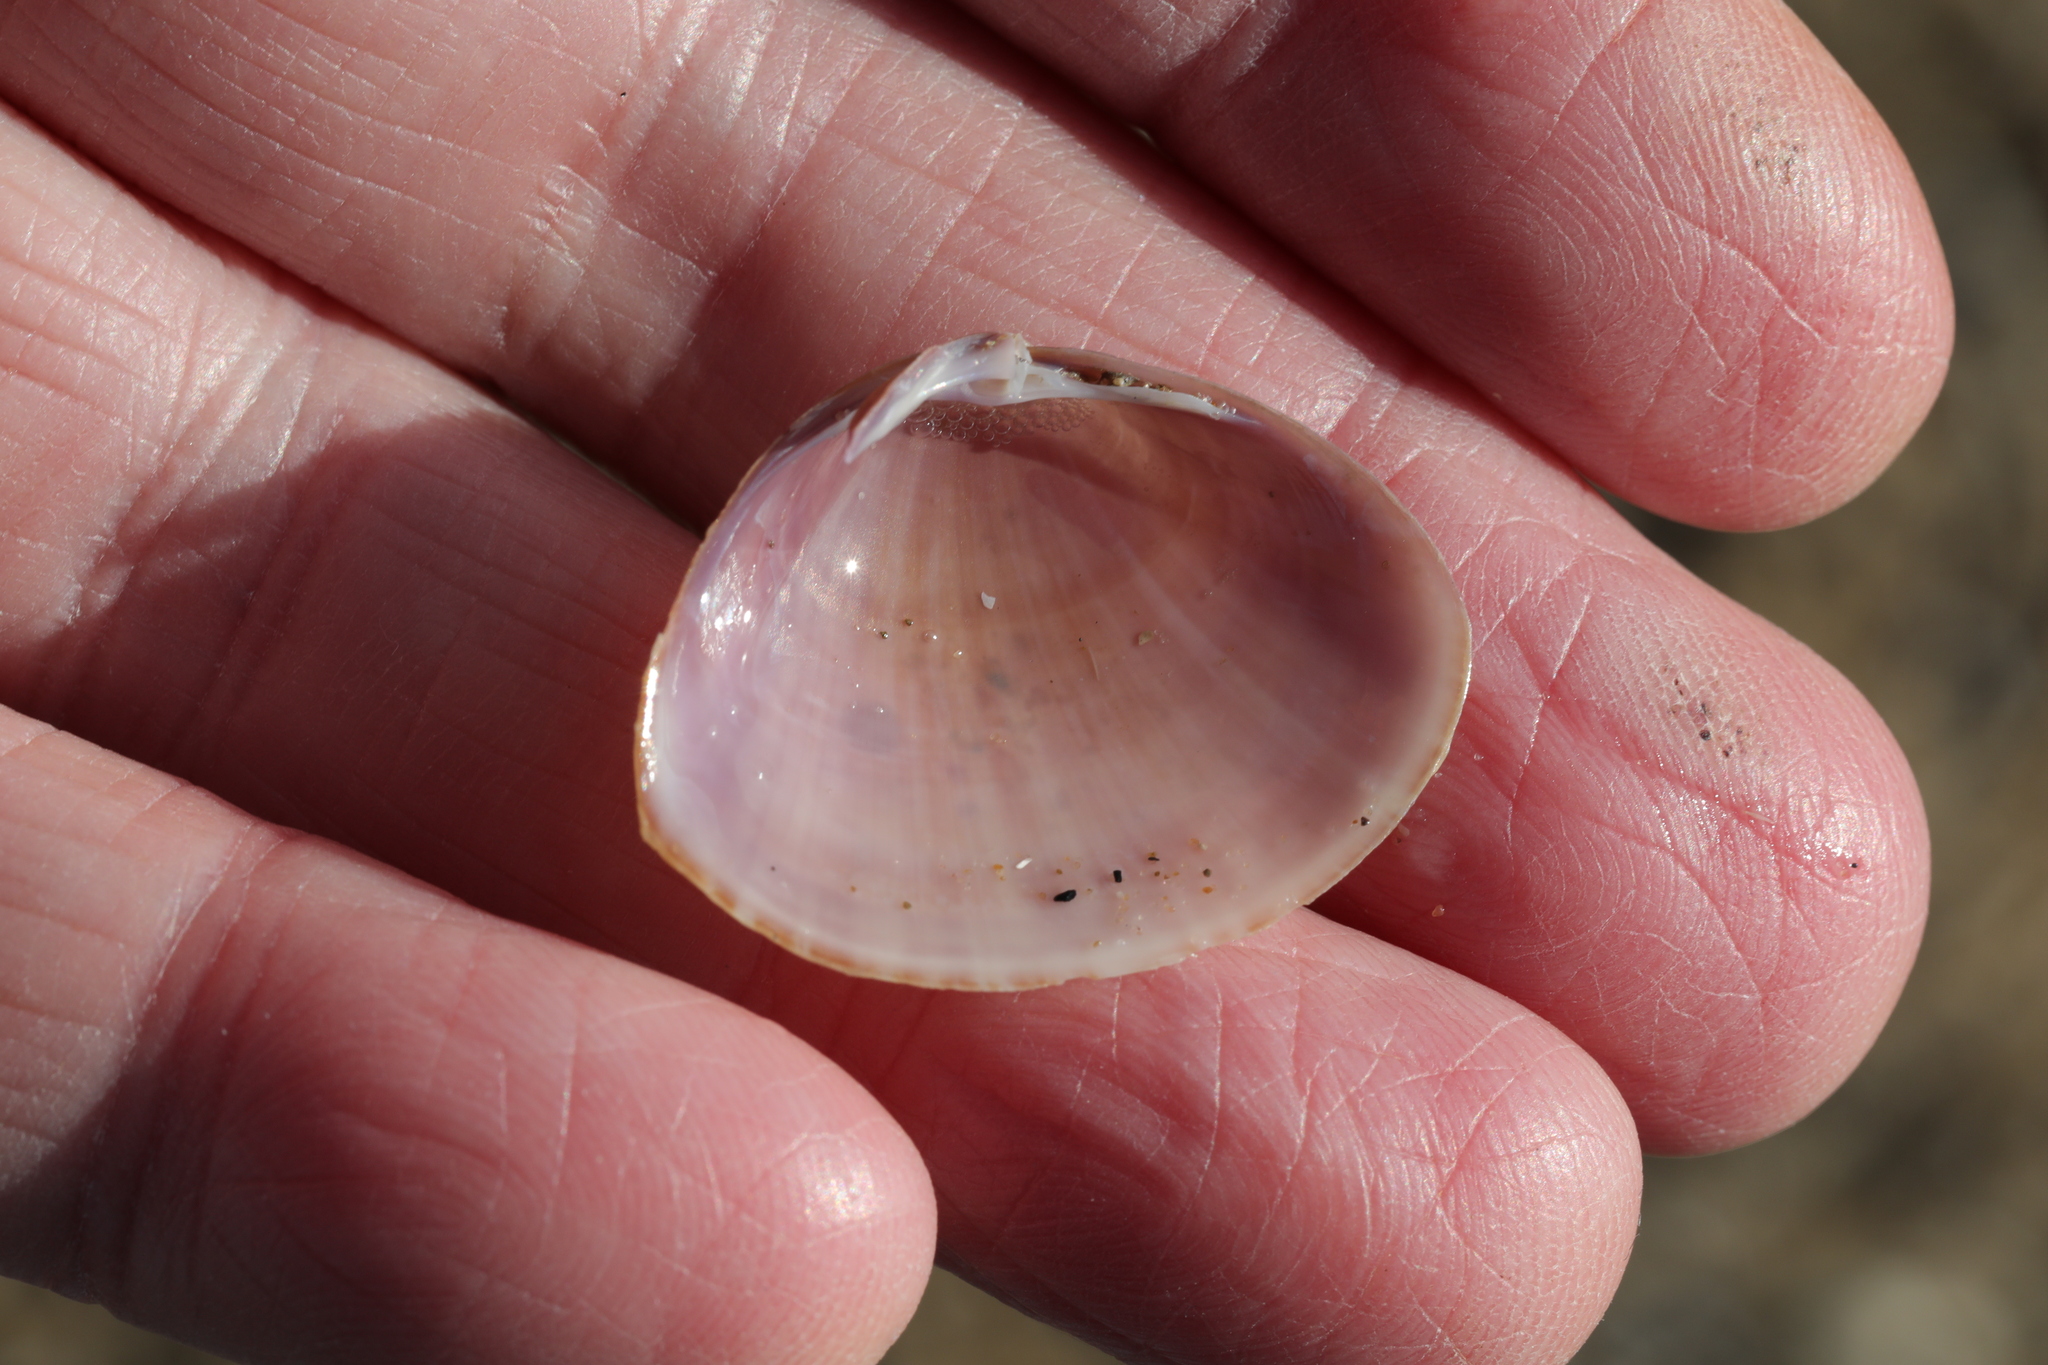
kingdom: Animalia
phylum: Mollusca
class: Bivalvia
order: Venerida
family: Mactridae
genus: Mactra
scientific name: Mactra stultorum
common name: Rayed trough shell
